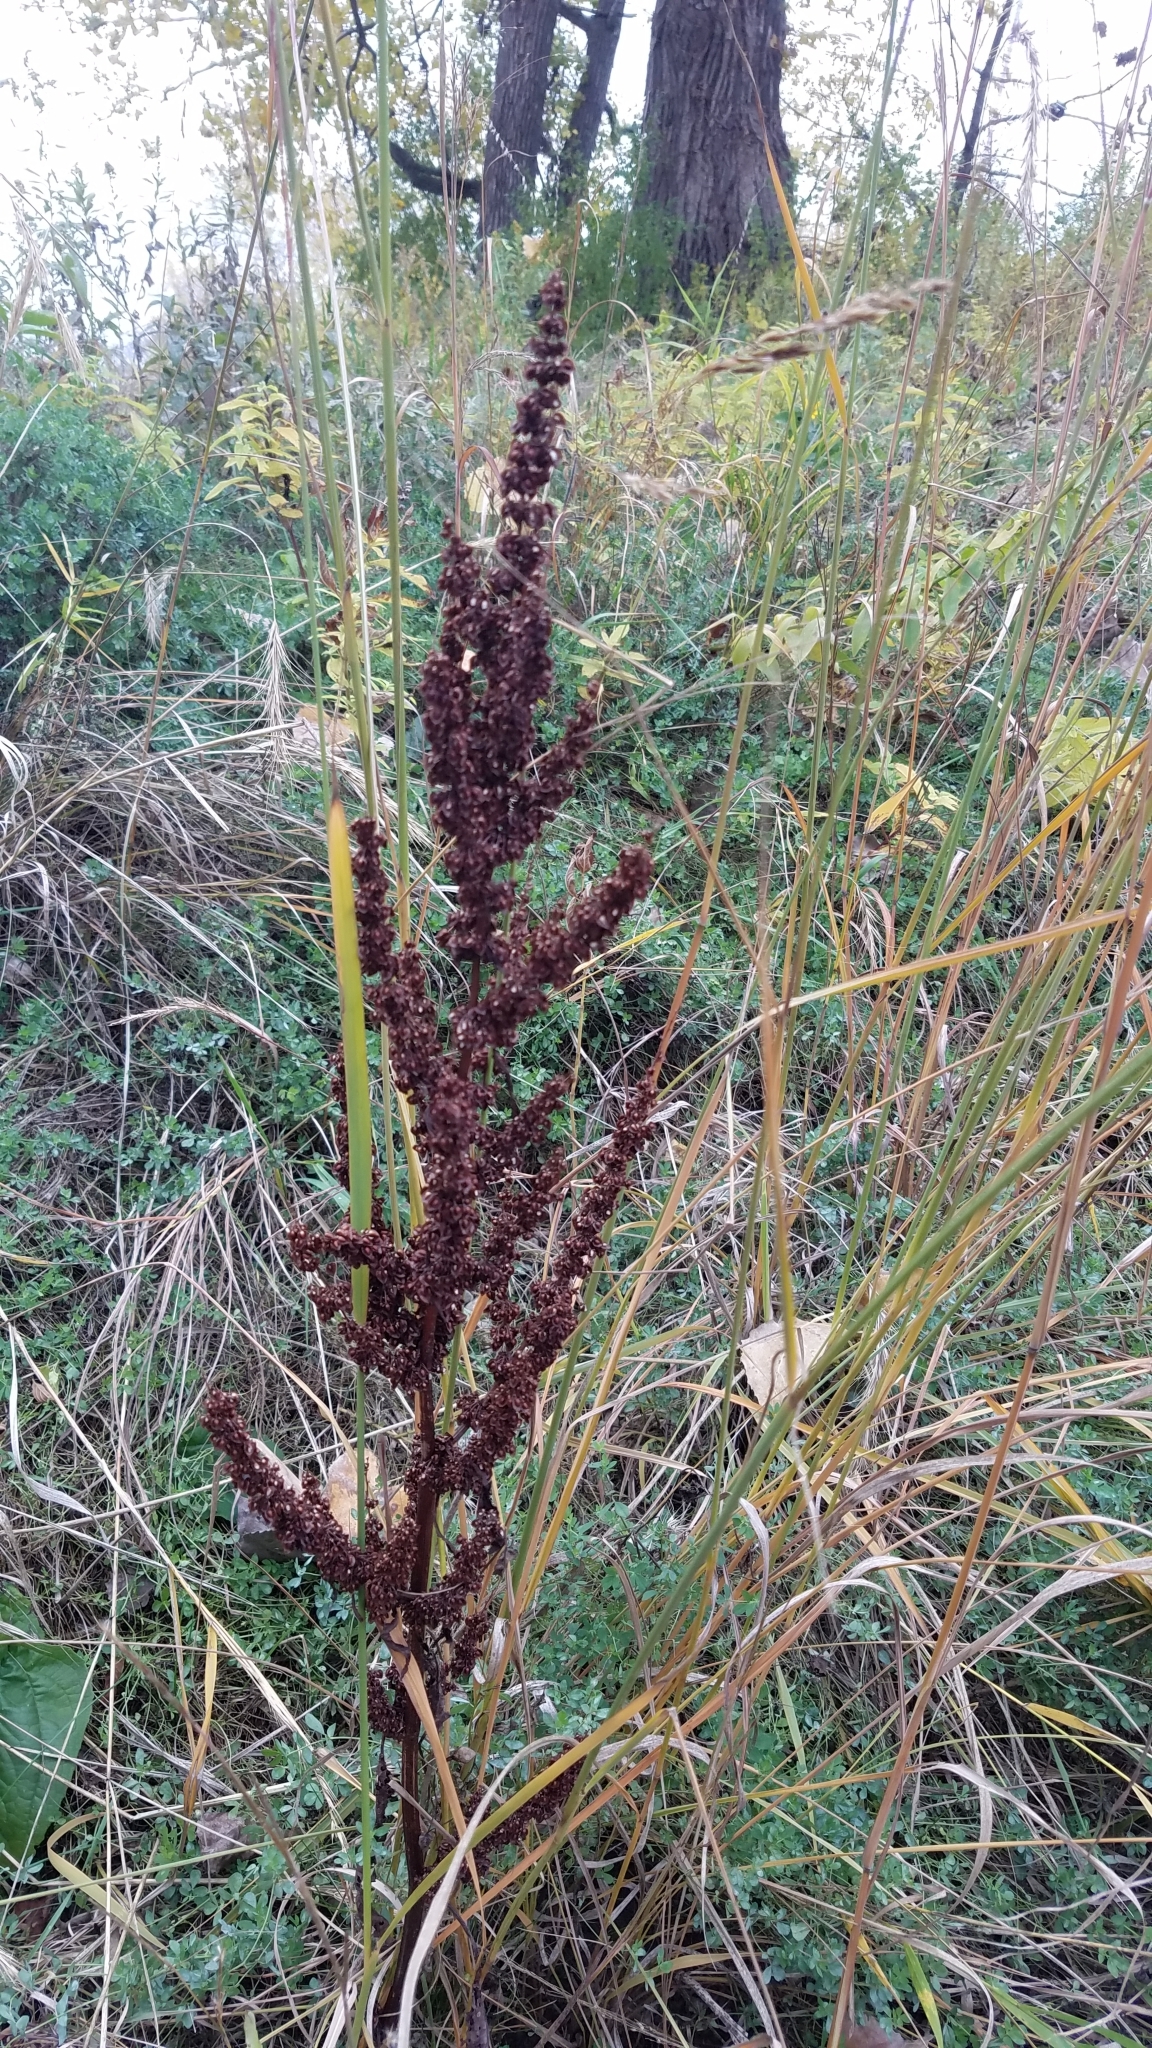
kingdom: Plantae
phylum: Tracheophyta
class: Magnoliopsida
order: Caryophyllales
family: Polygonaceae
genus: Rumex
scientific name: Rumex crispus
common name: Curled dock
